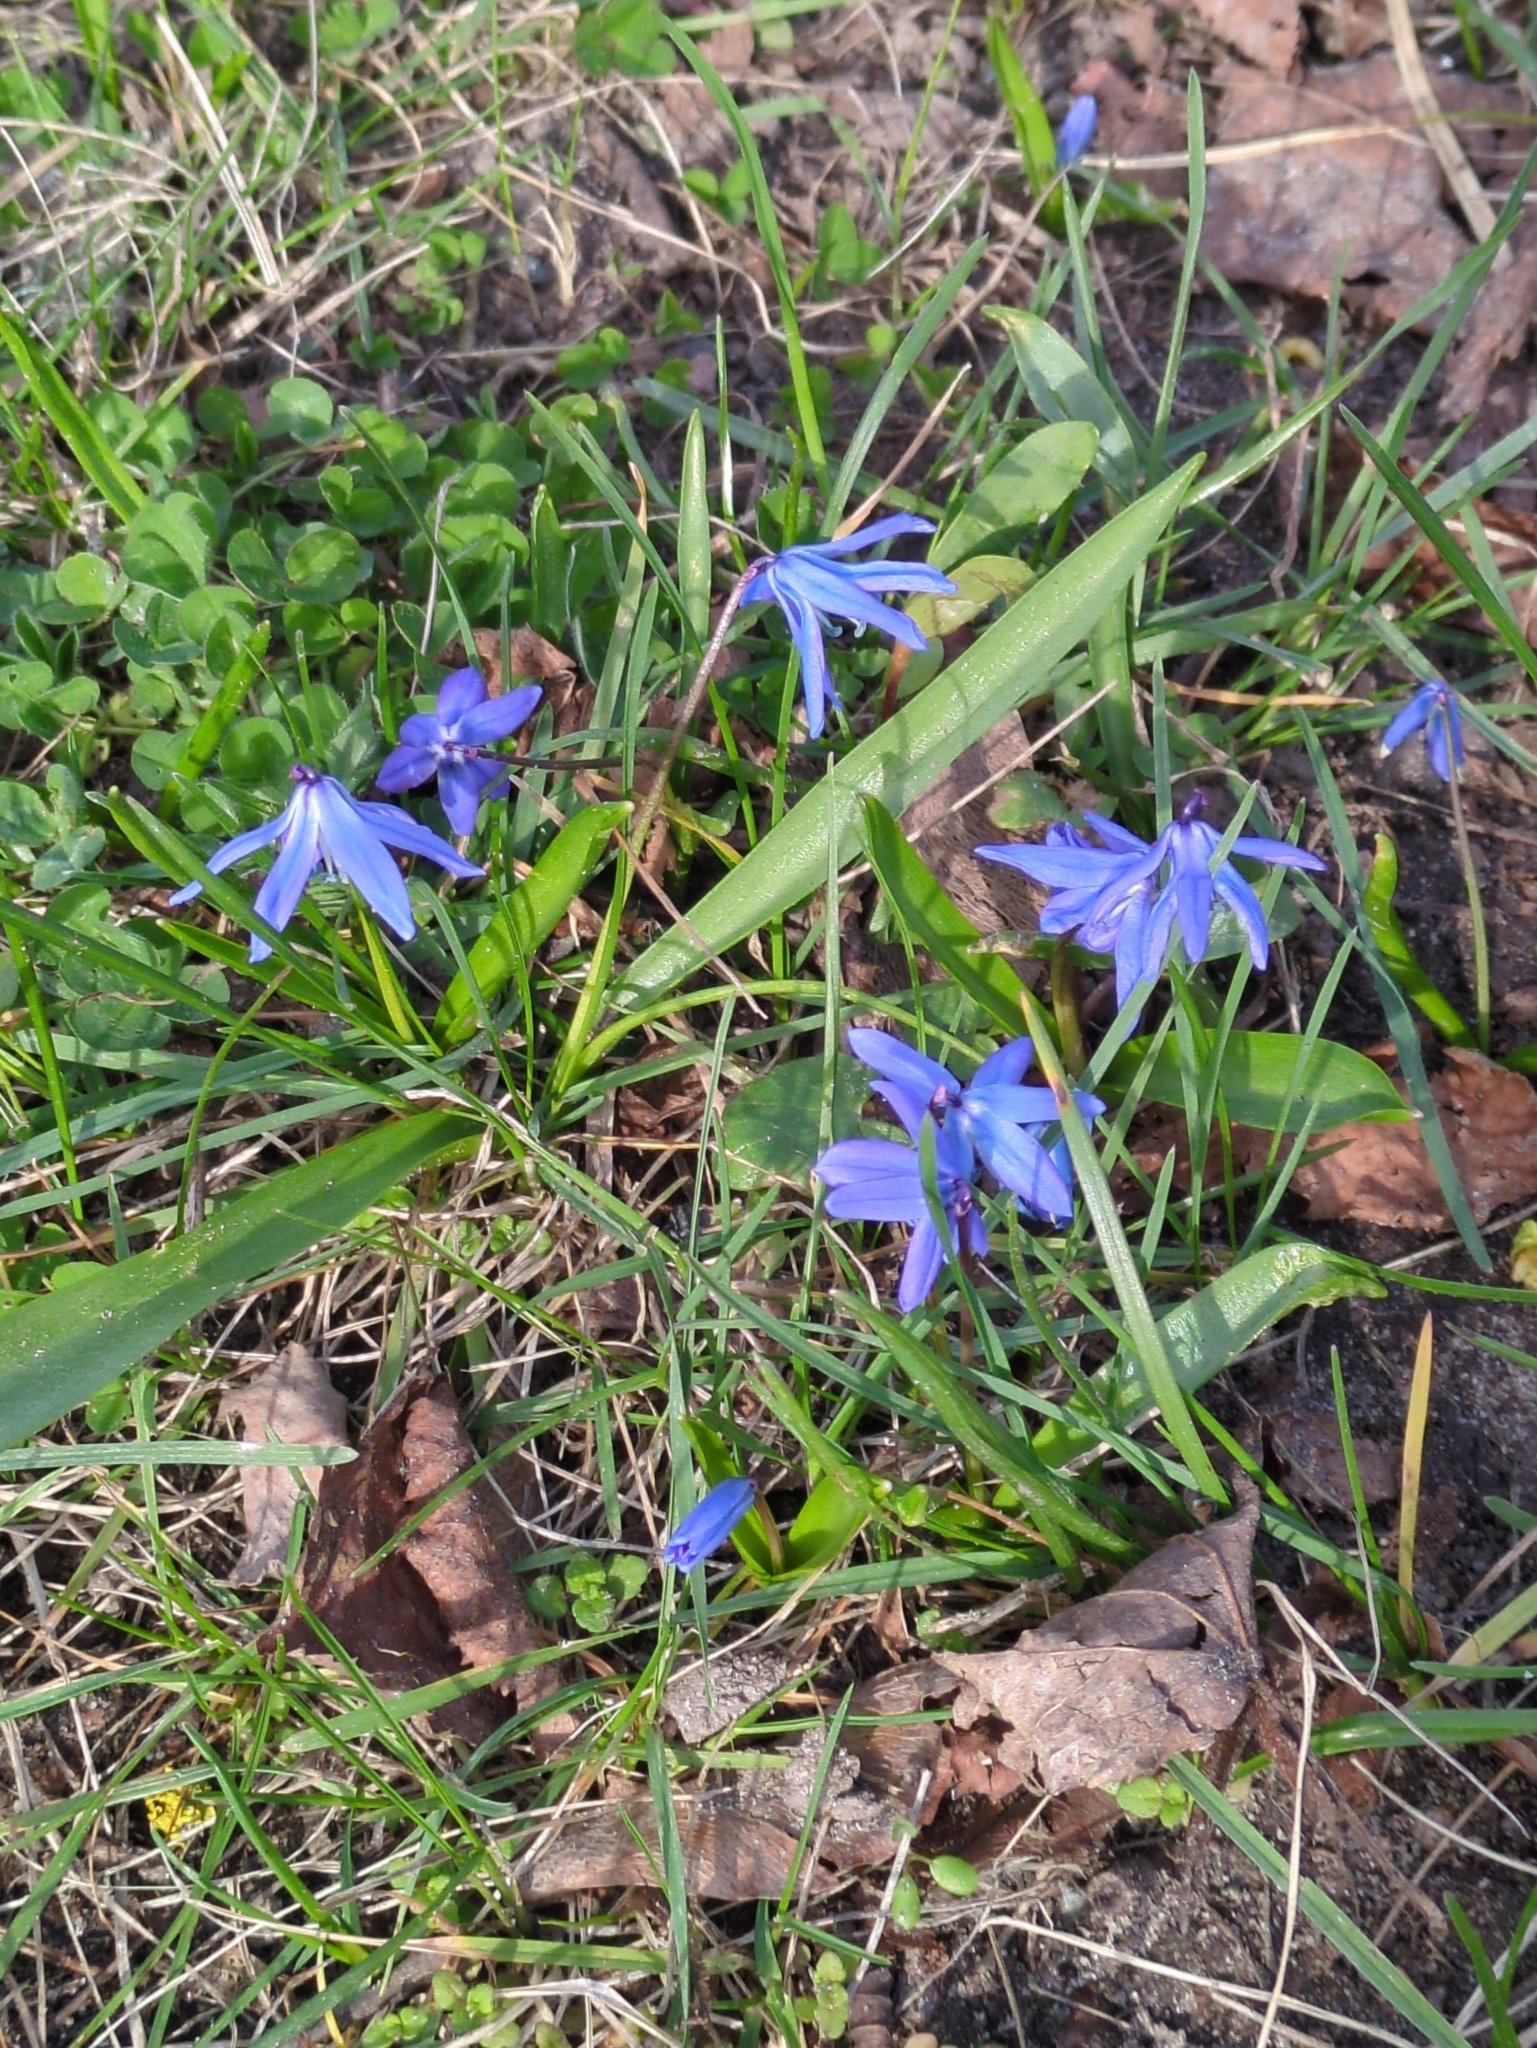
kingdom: Plantae
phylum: Tracheophyta
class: Liliopsida
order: Asparagales
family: Asparagaceae
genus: Scilla
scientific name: Scilla siberica
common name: Siberian squill
